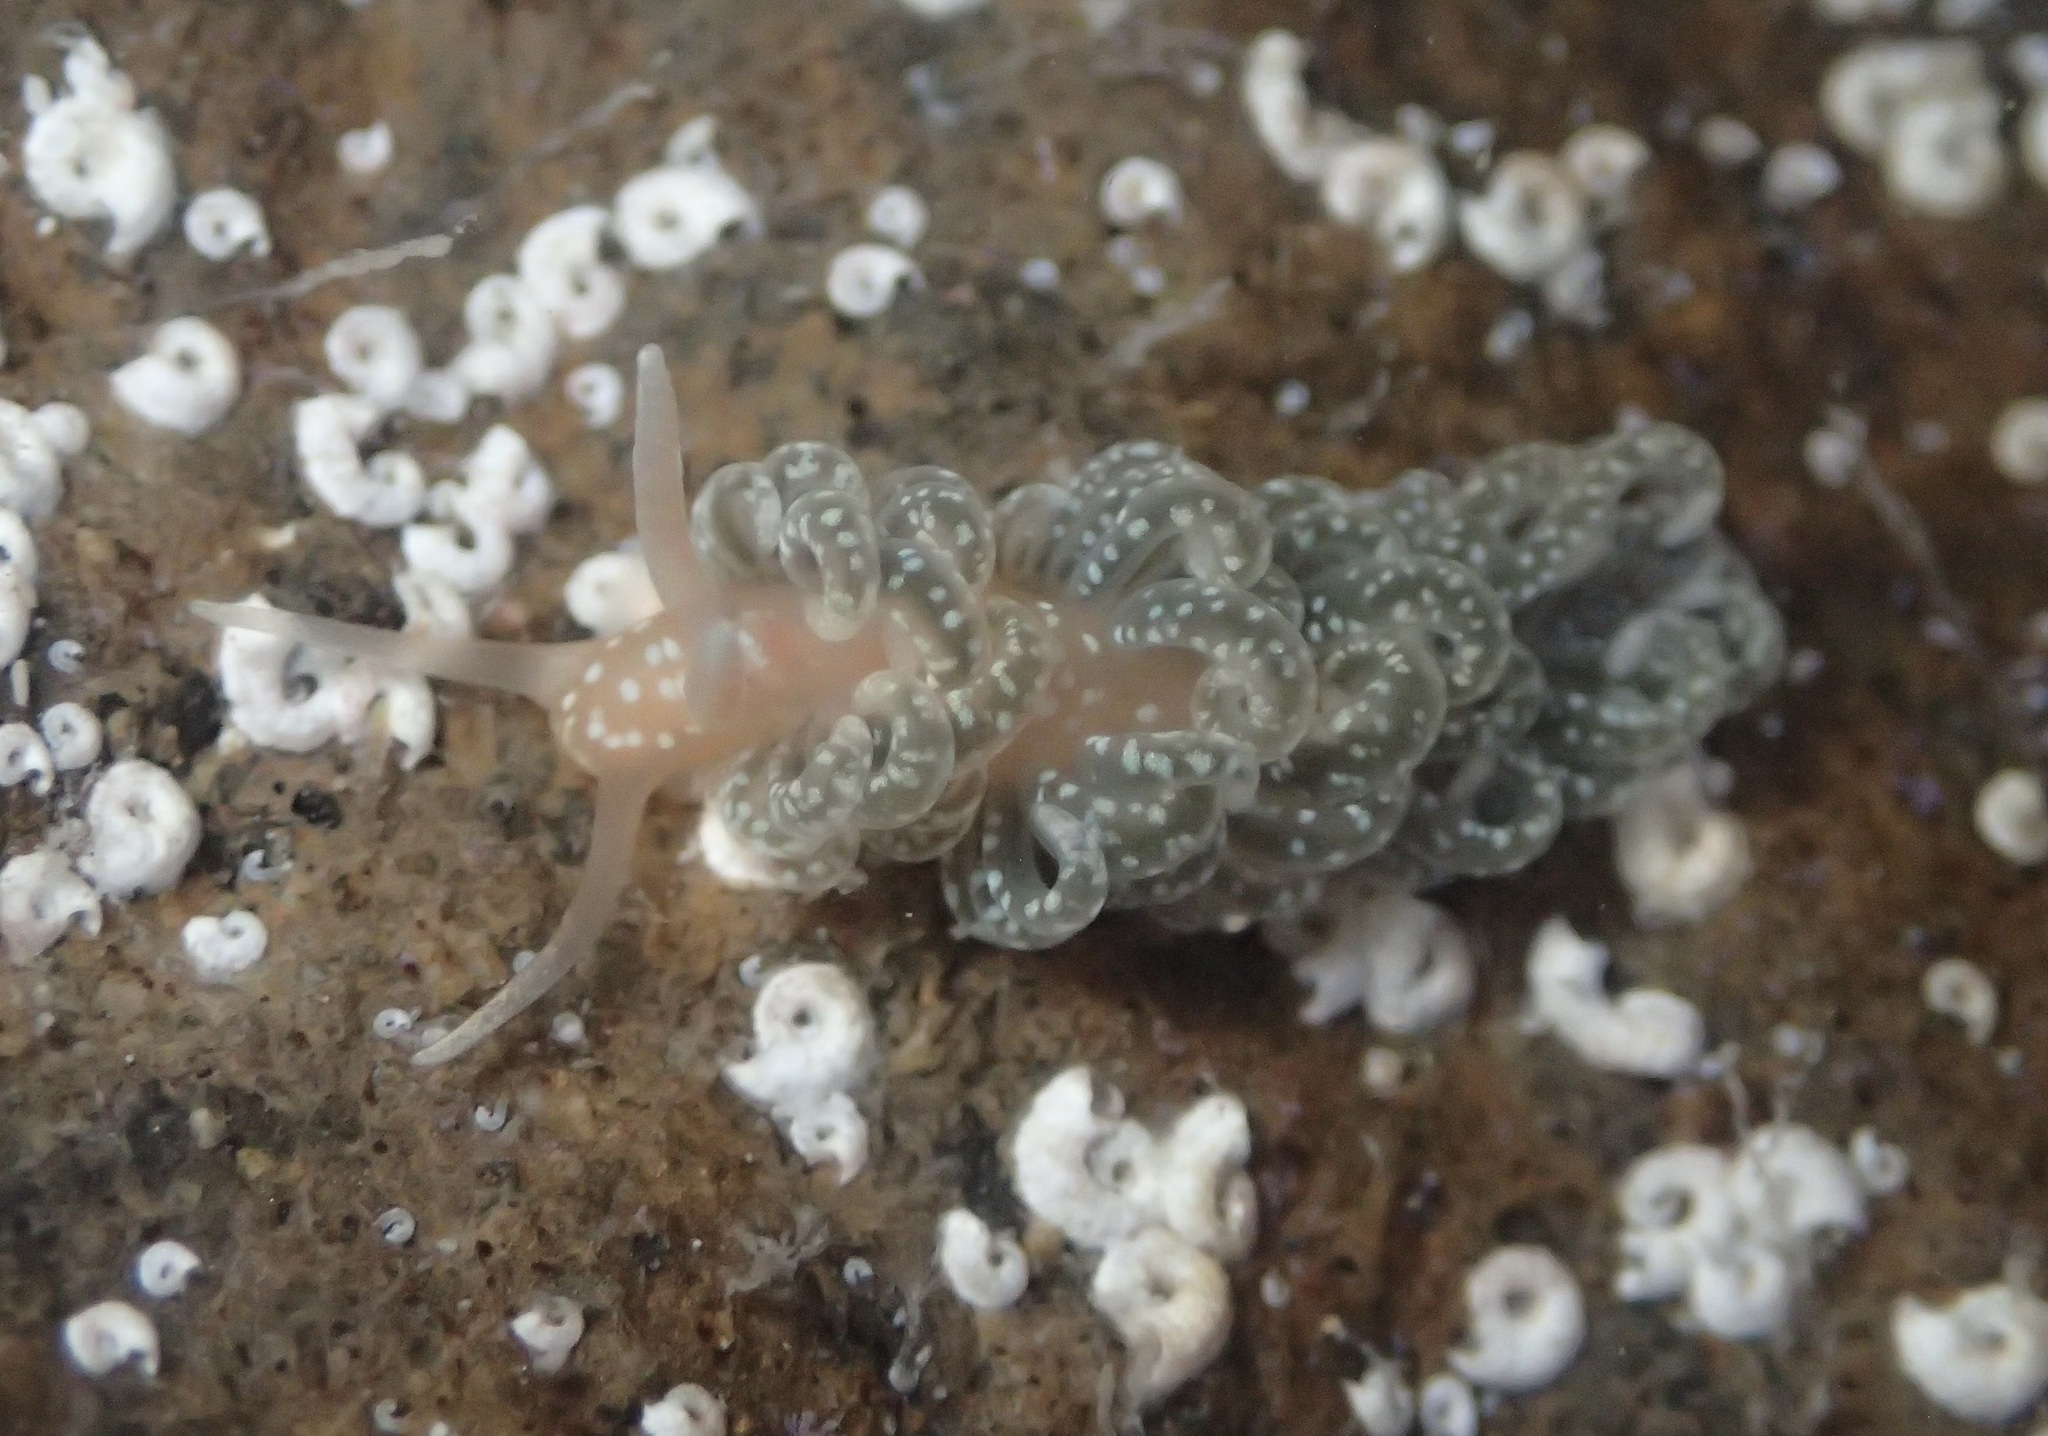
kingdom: Animalia
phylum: Mollusca
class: Gastropoda
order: Nudibranchia
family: Aeolidiidae
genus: Spurilla
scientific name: Spurilla braziliana
